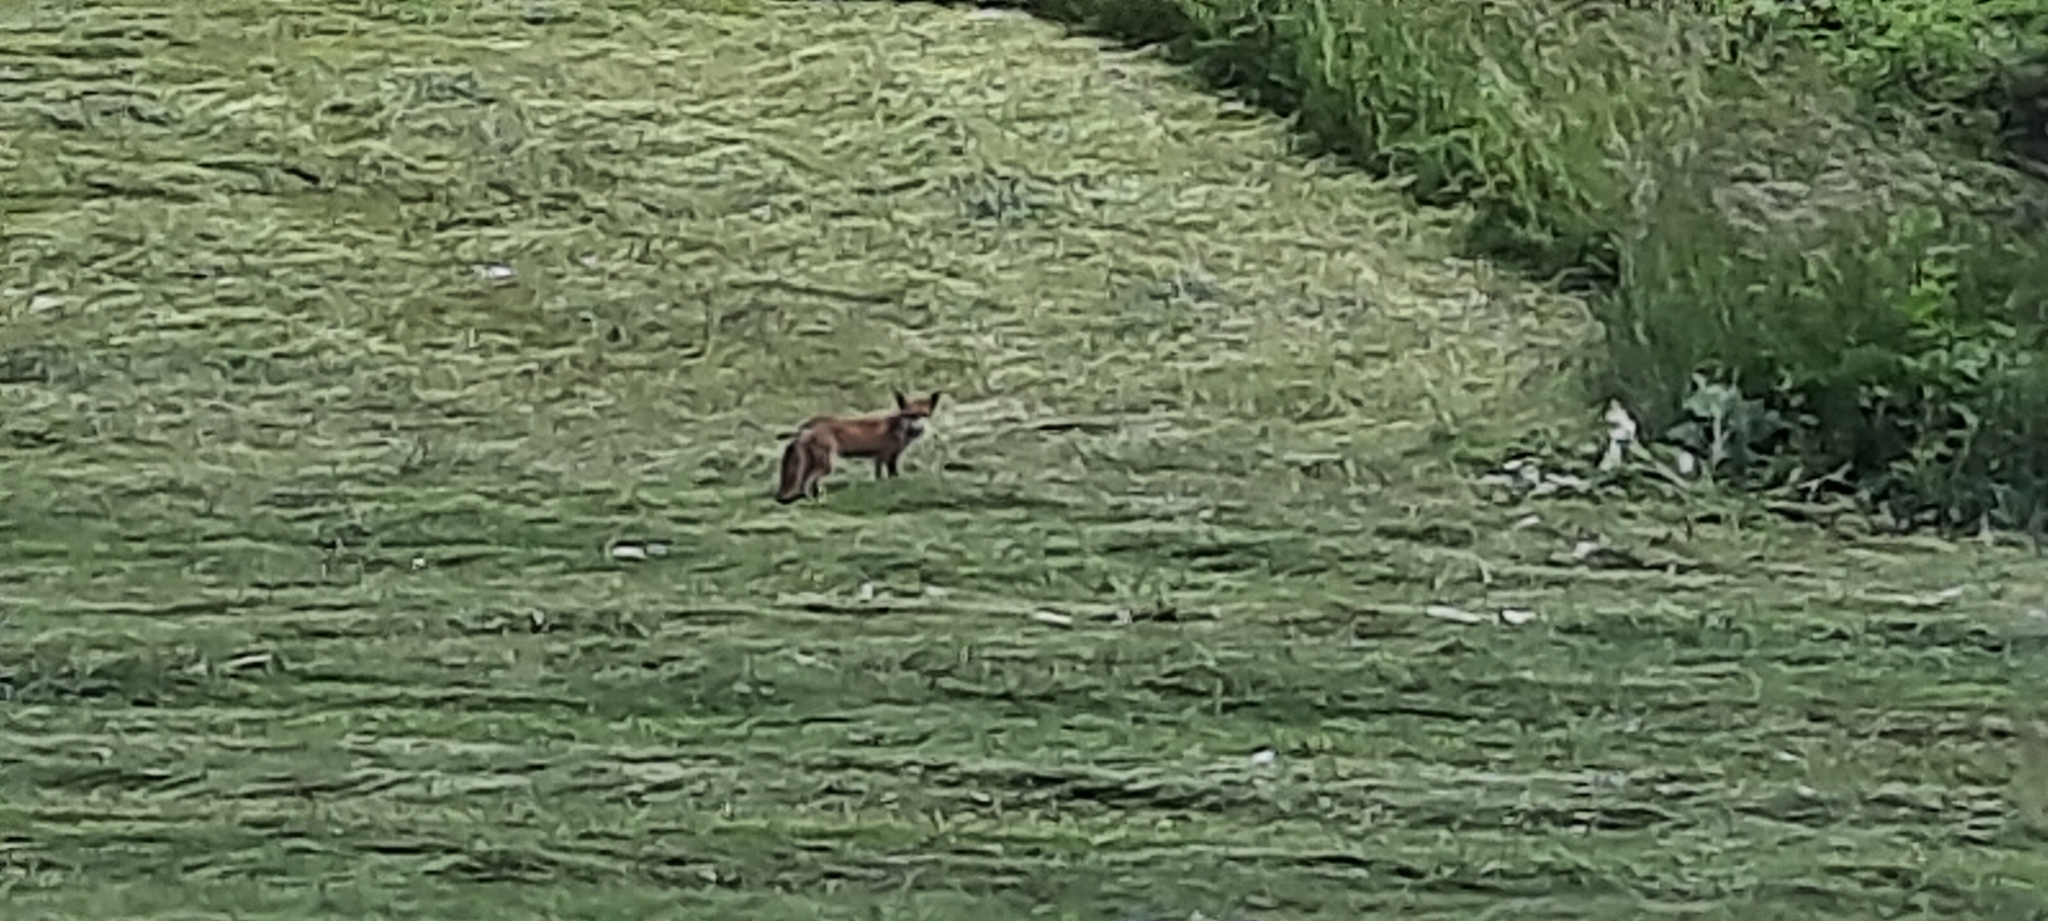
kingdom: Animalia
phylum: Chordata
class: Mammalia
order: Carnivora
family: Canidae
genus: Vulpes
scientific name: Vulpes vulpes
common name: Red fox
